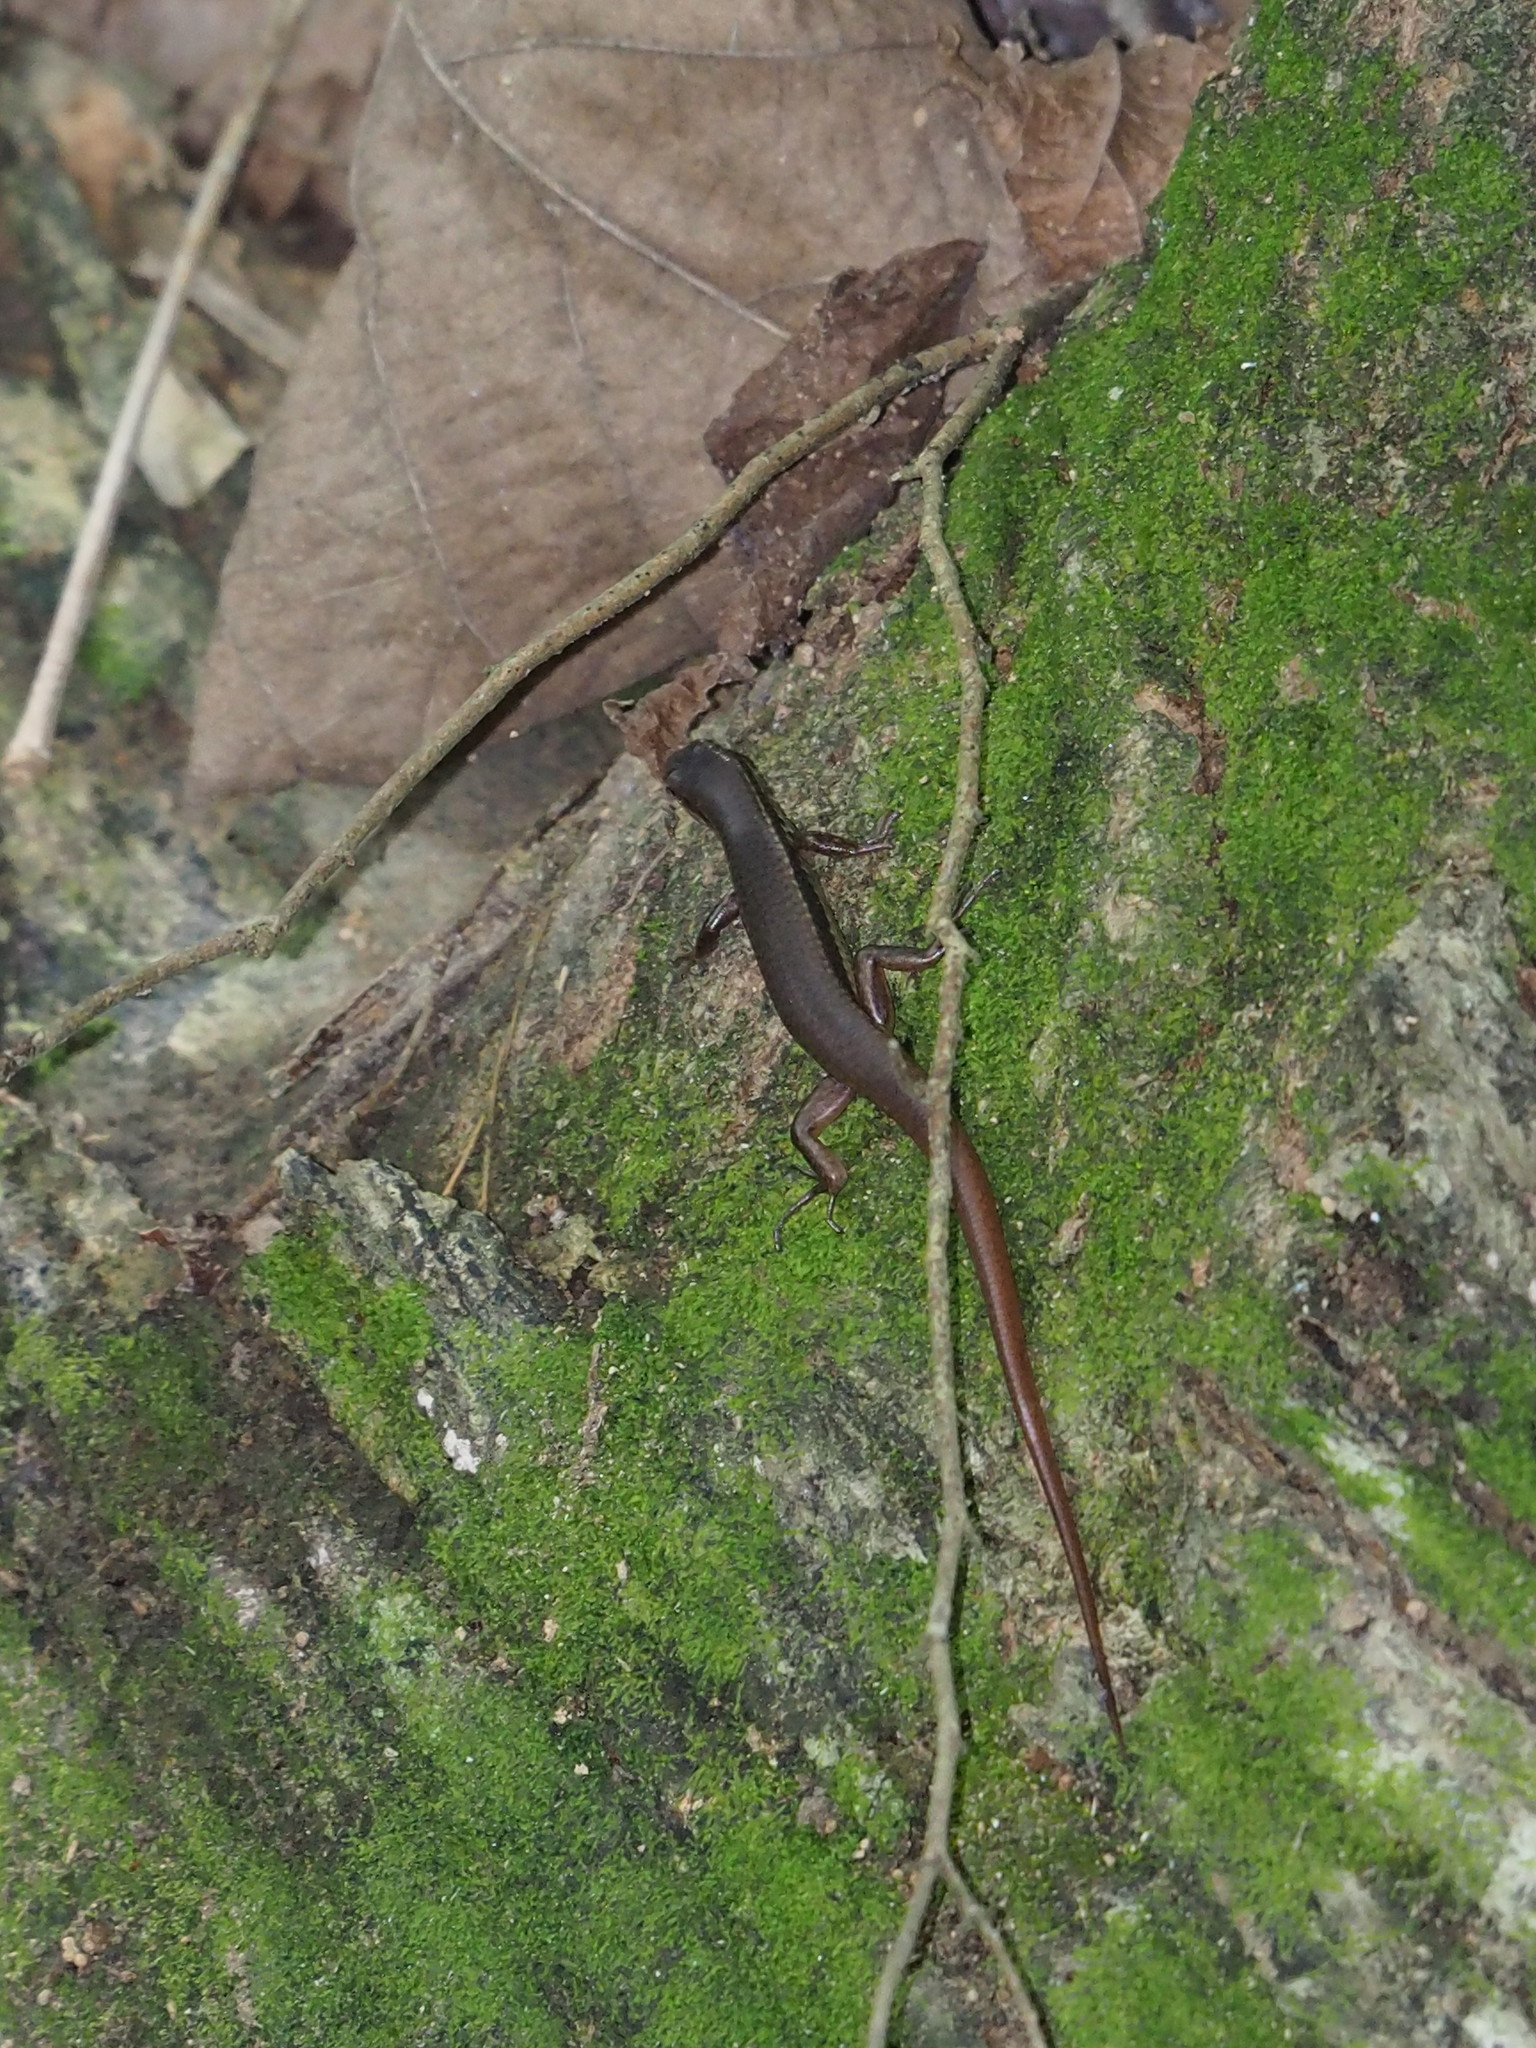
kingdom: Animalia
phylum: Chordata
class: Squamata
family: Scincidae
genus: Sphenomorphus
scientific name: Sphenomorphus indicus
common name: Himalayan forest skink
